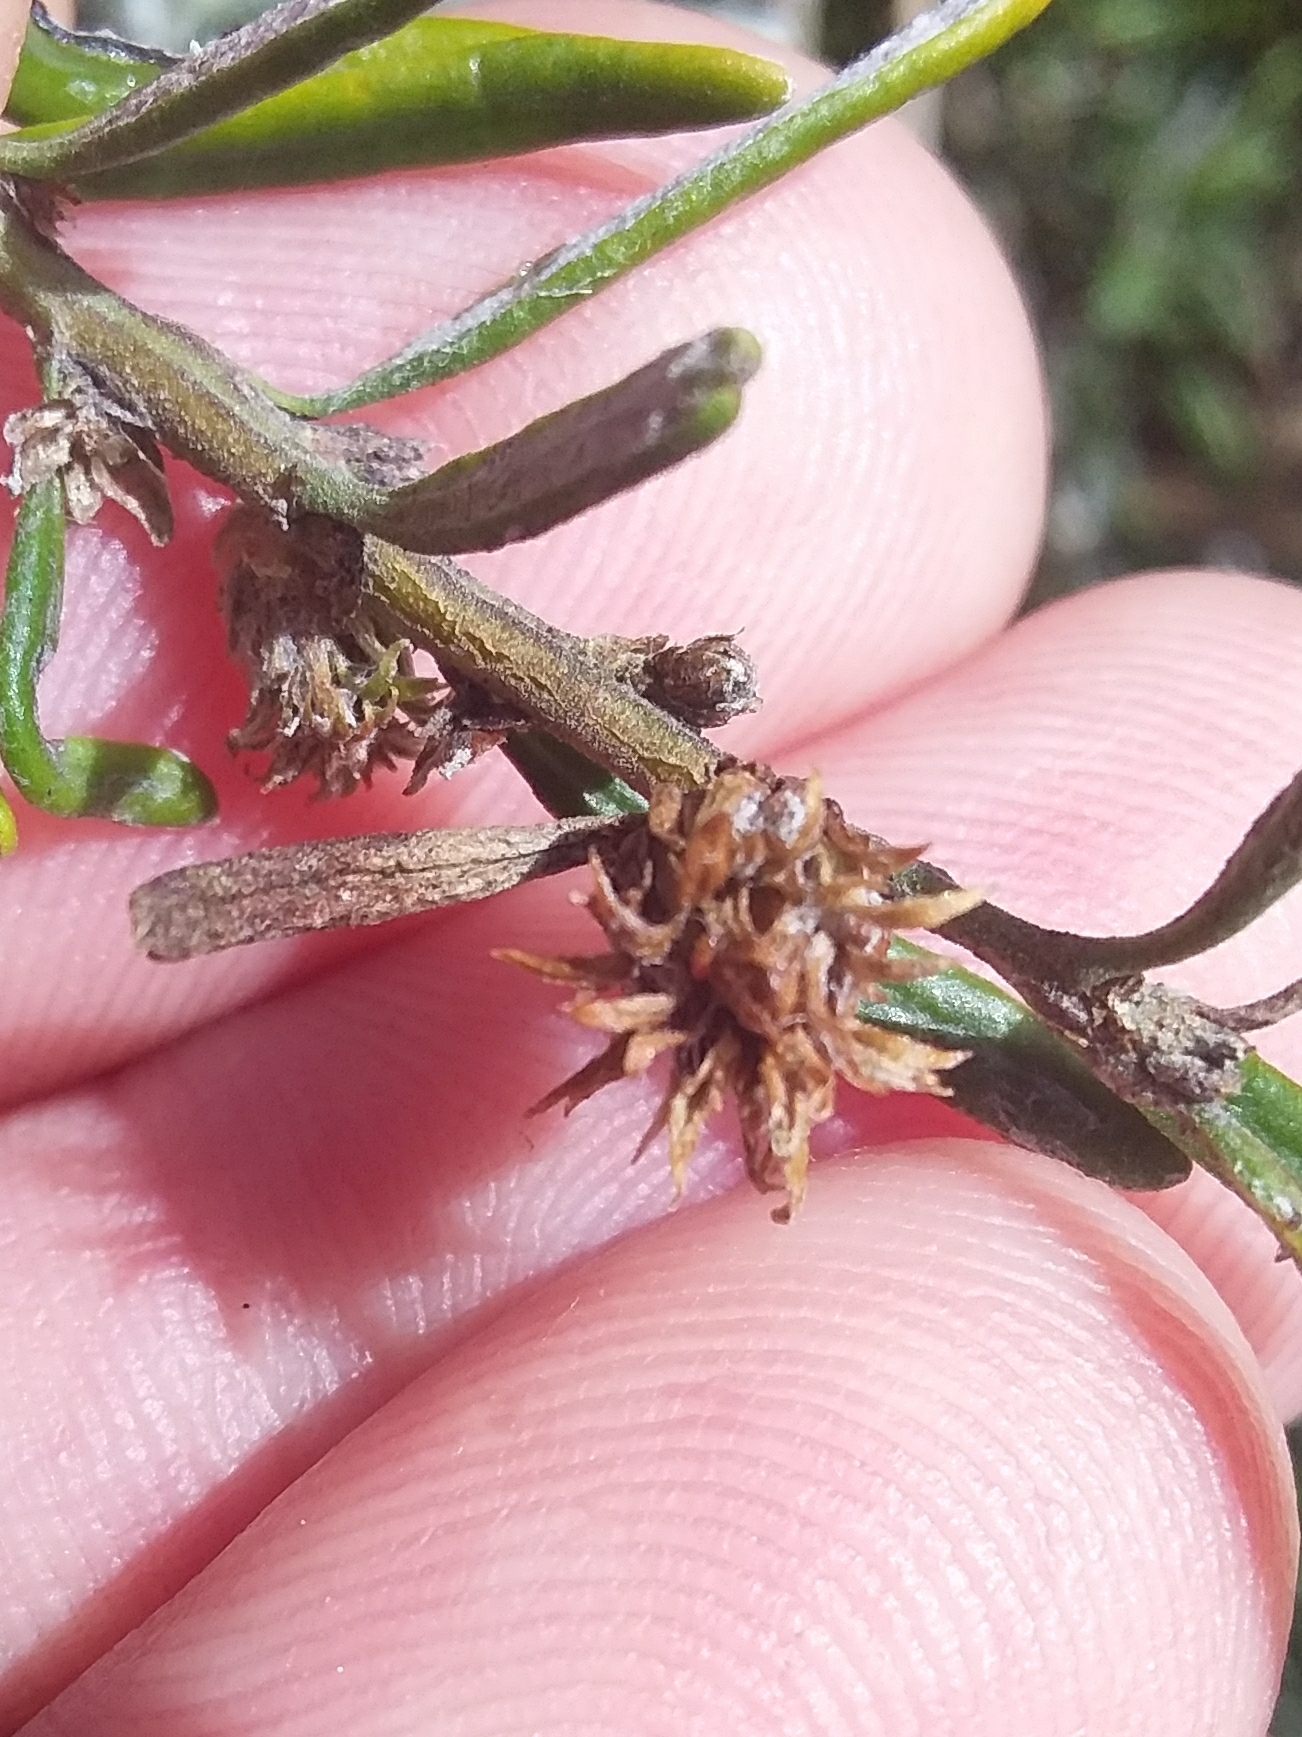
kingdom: Animalia
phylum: Arthropoda
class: Insecta
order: Diptera
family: Cecidomyiidae
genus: Trigonomyia
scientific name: Trigonomyia cristata
